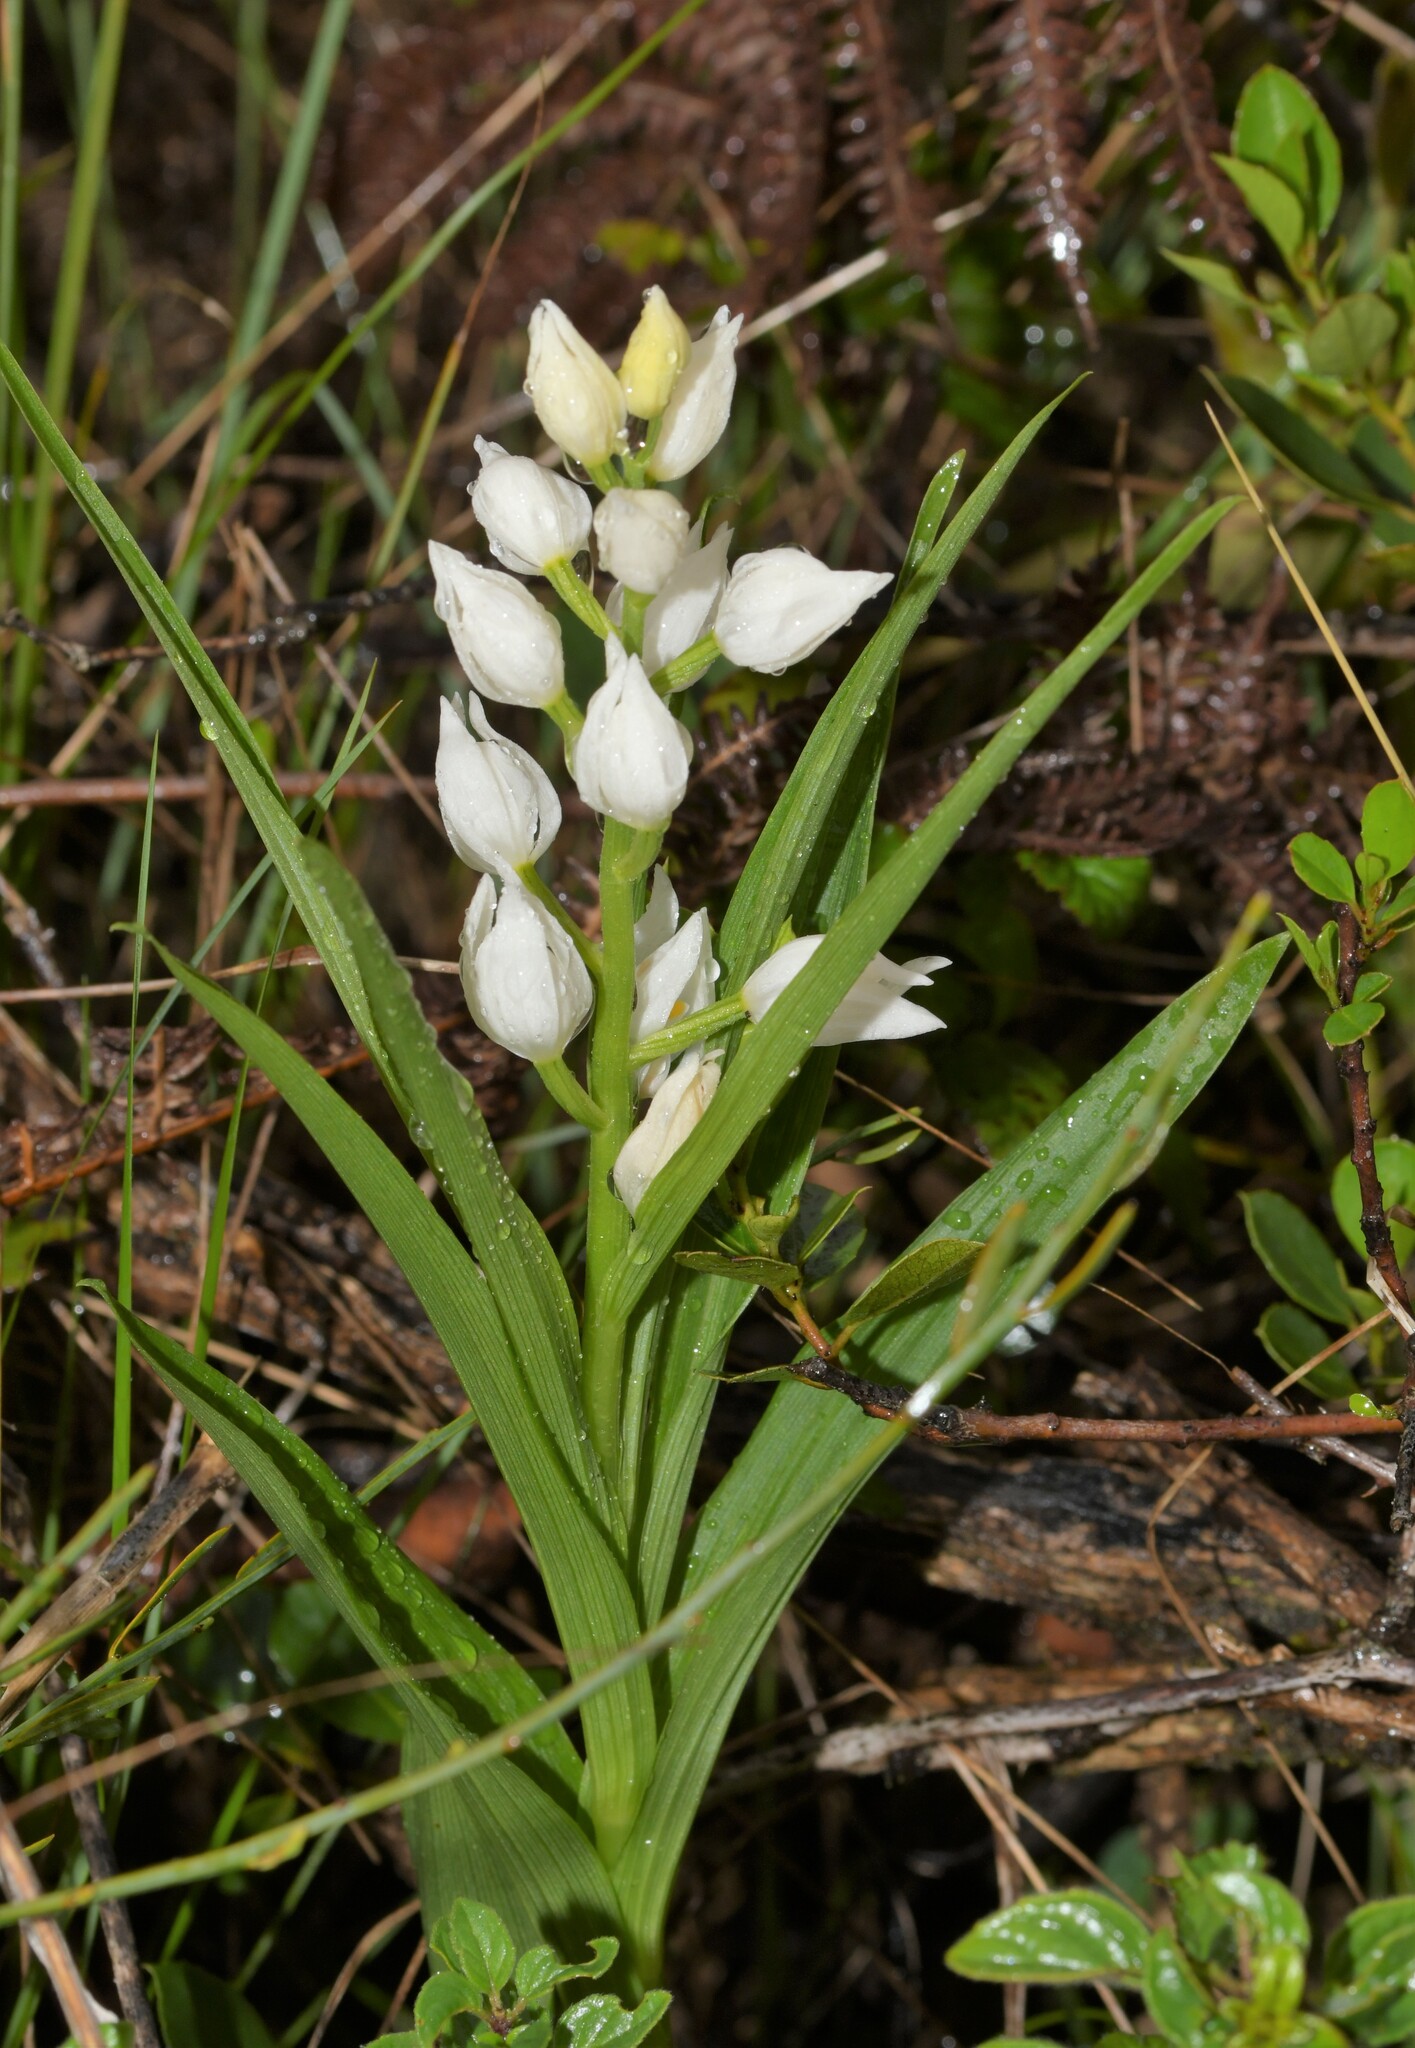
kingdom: Plantae
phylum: Tracheophyta
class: Liliopsida
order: Asparagales
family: Orchidaceae
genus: Cephalanthera
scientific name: Cephalanthera longifolia
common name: Narrow-leaved helleborine
